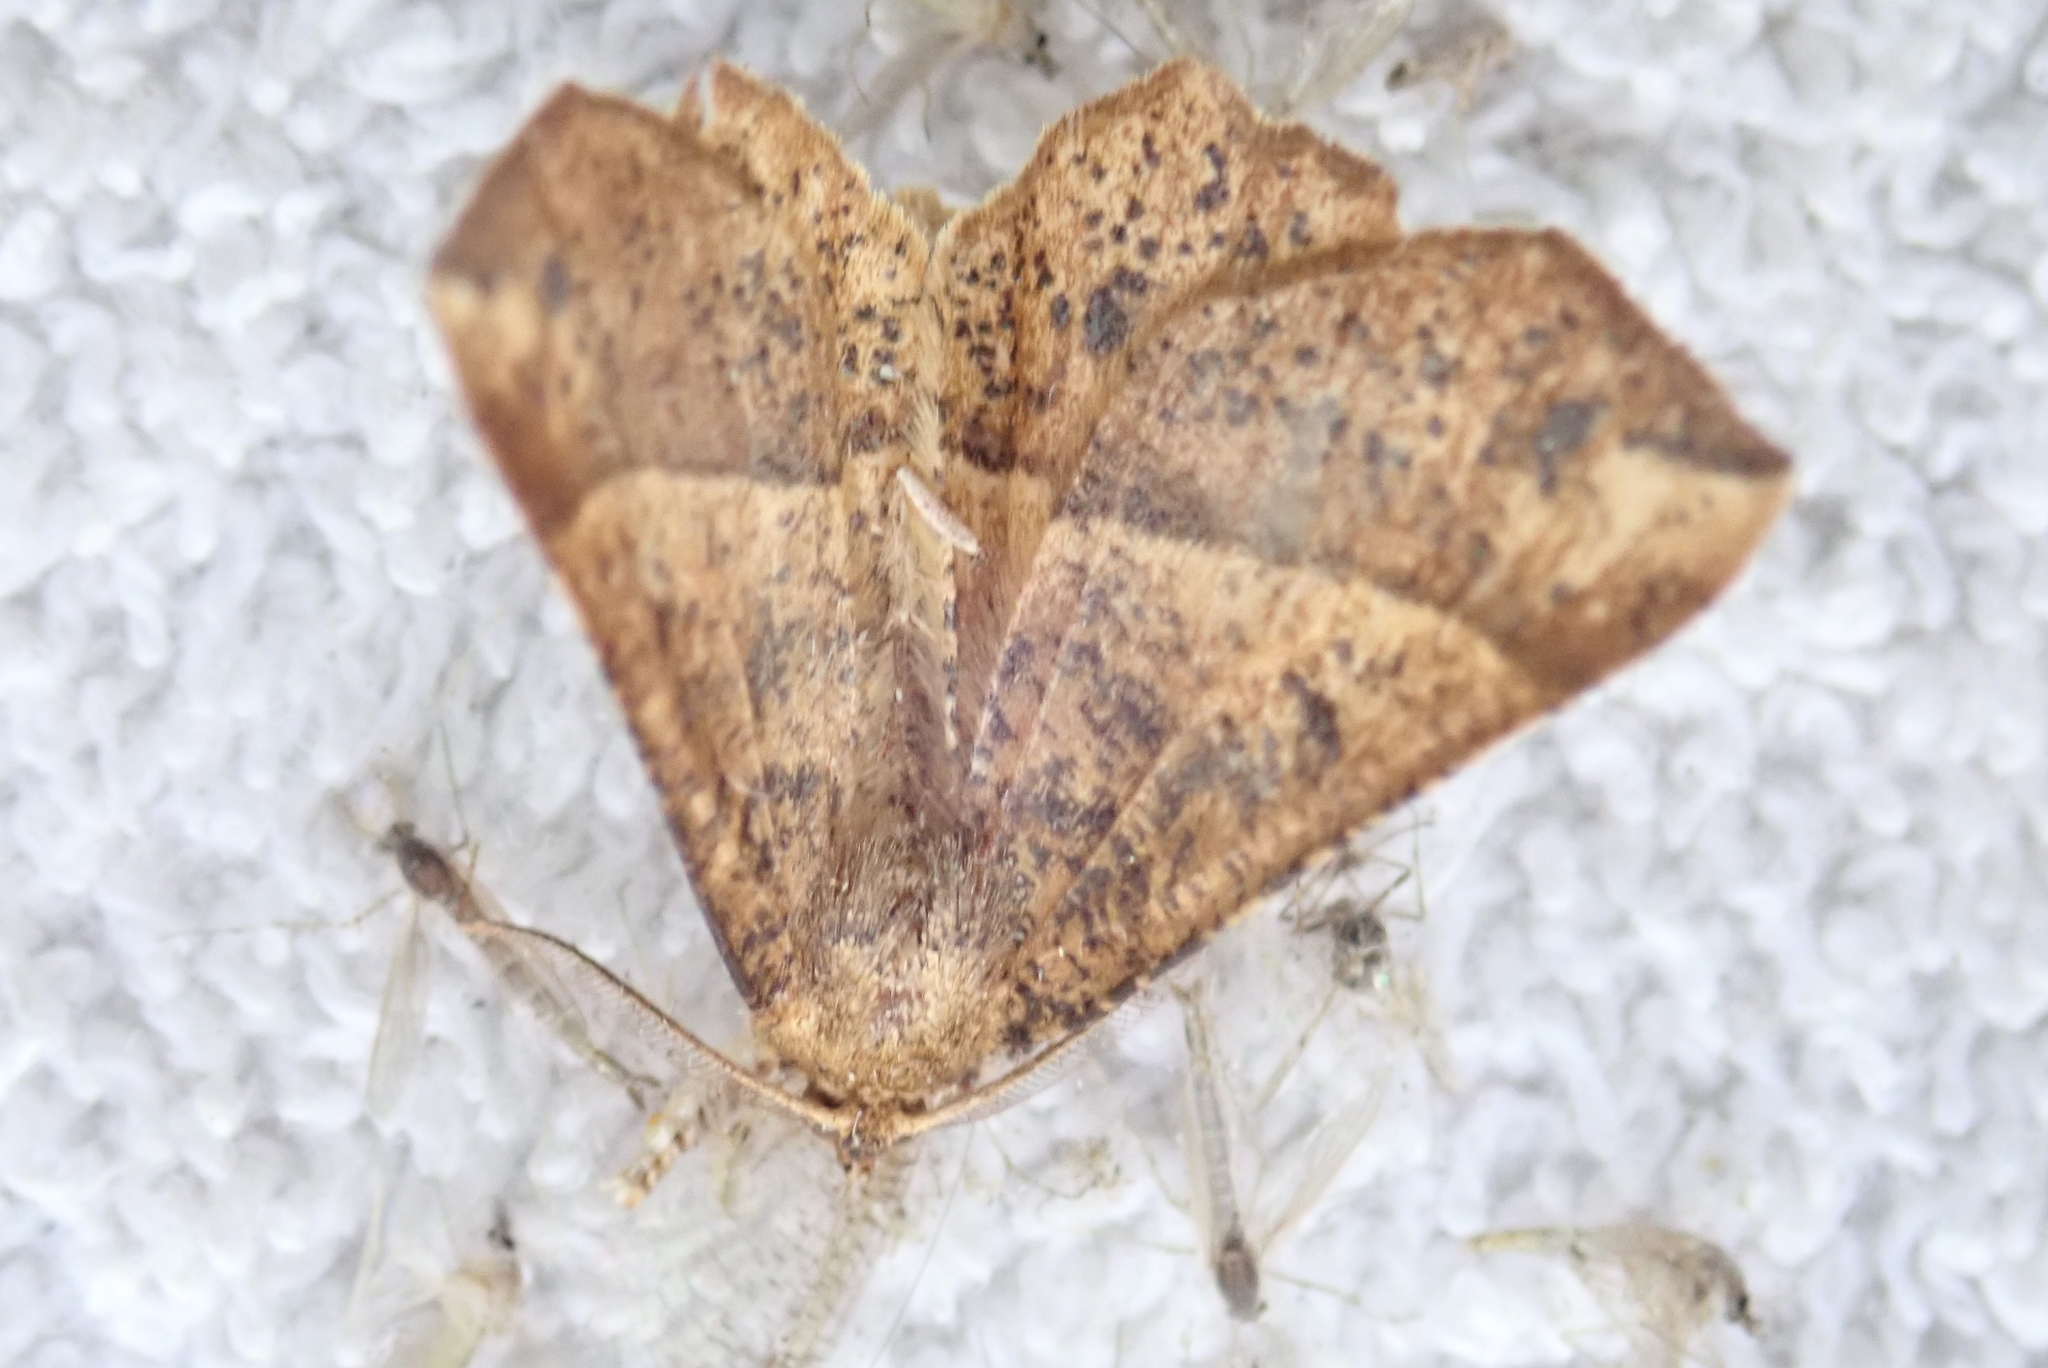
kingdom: Animalia
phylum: Arthropoda
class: Insecta
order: Lepidoptera
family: Geometridae
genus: Euchlaena
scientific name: Euchlaena tigrinaria
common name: Mottled euchlaena moth
